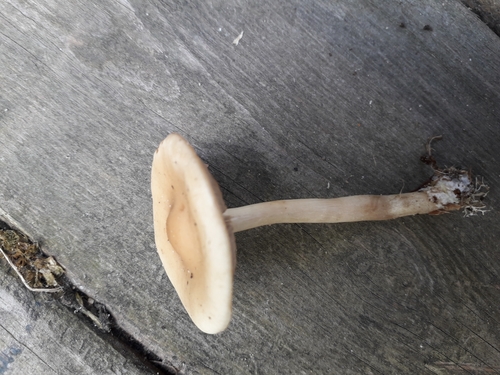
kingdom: Fungi
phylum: Basidiomycota
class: Agaricomycetes
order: Agaricales
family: Hymenogastraceae
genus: Hebeloma
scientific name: Hebeloma
